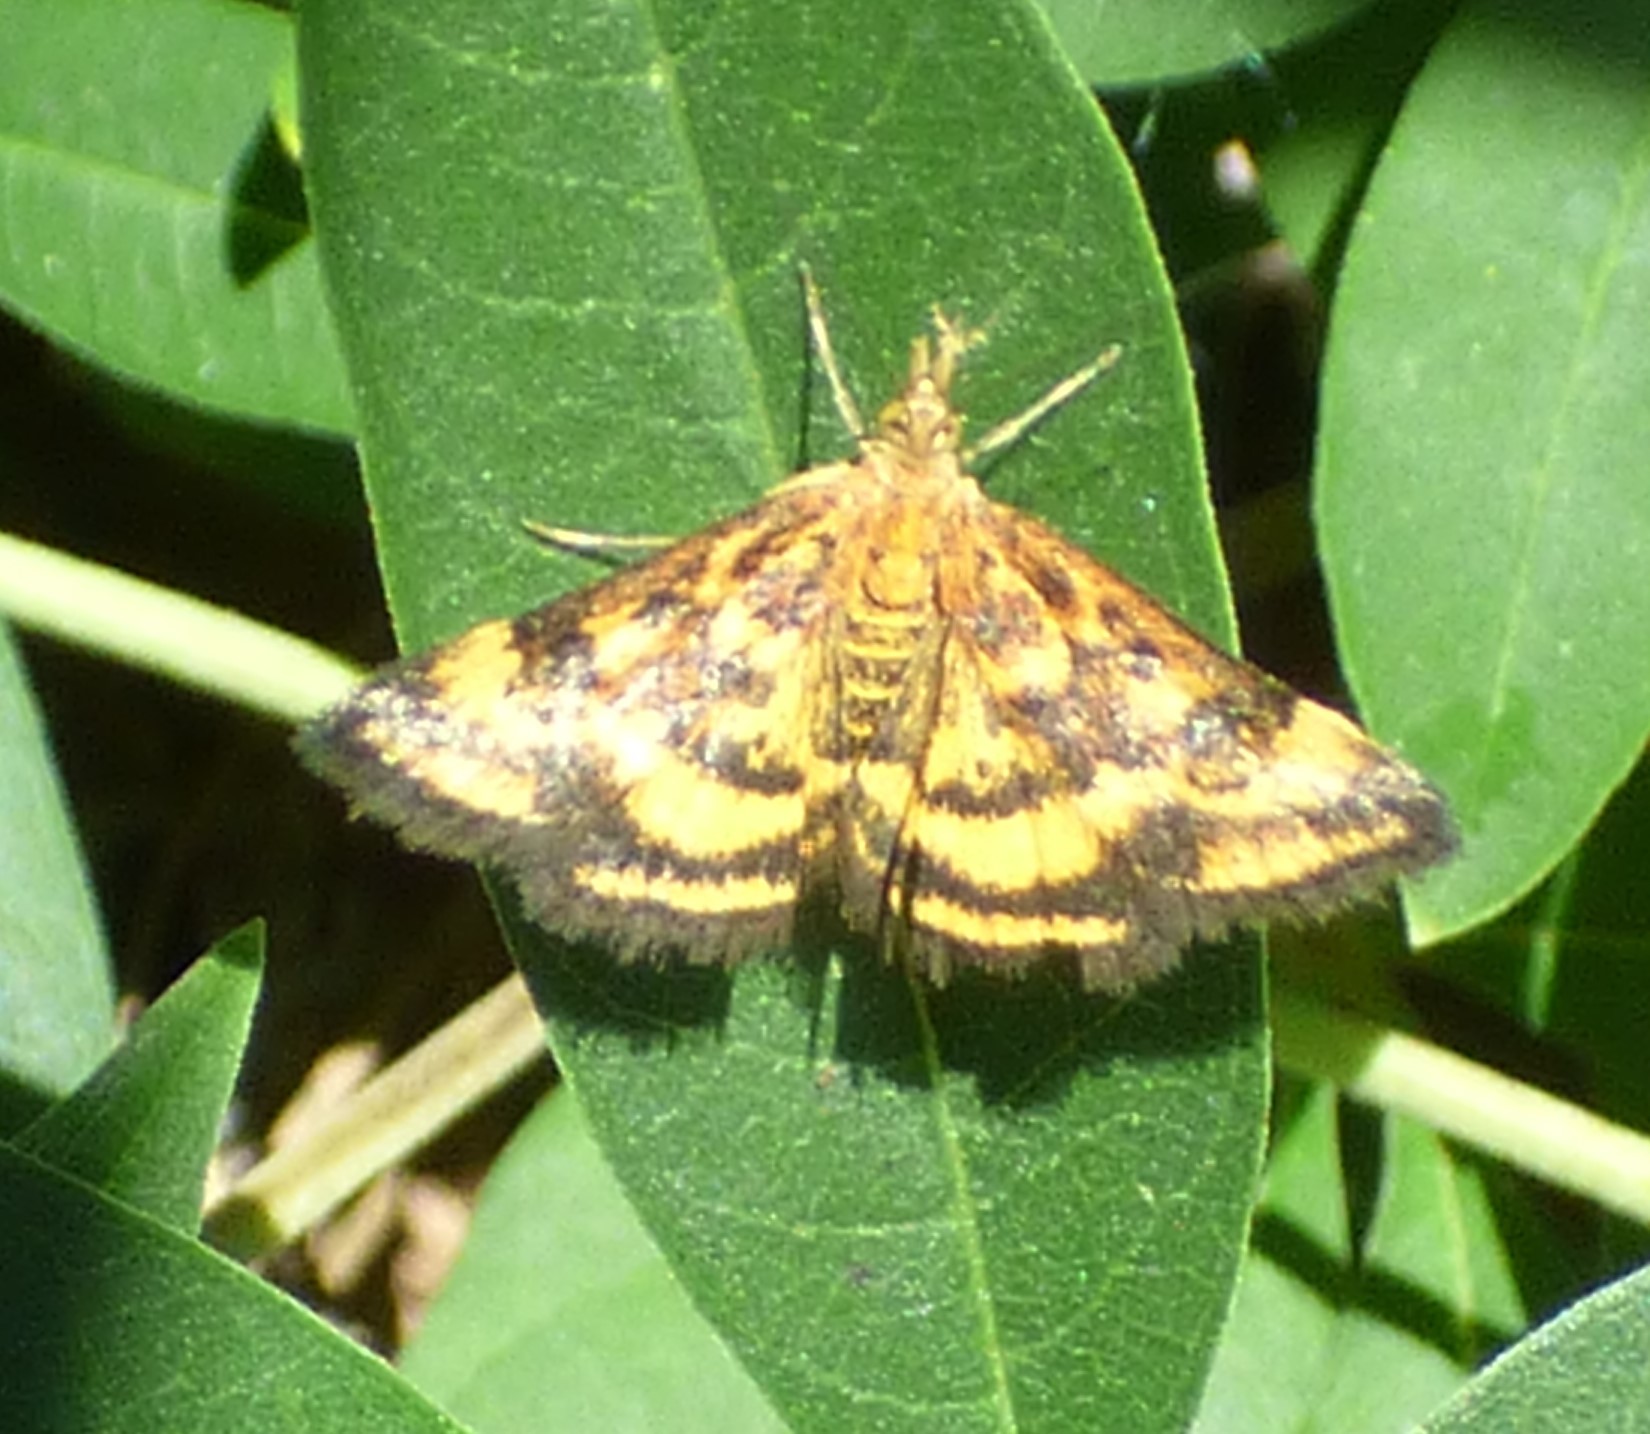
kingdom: Animalia
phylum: Arthropoda
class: Insecta
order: Lepidoptera
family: Crambidae
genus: Pyrausta
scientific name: Pyrausta subsequalis
